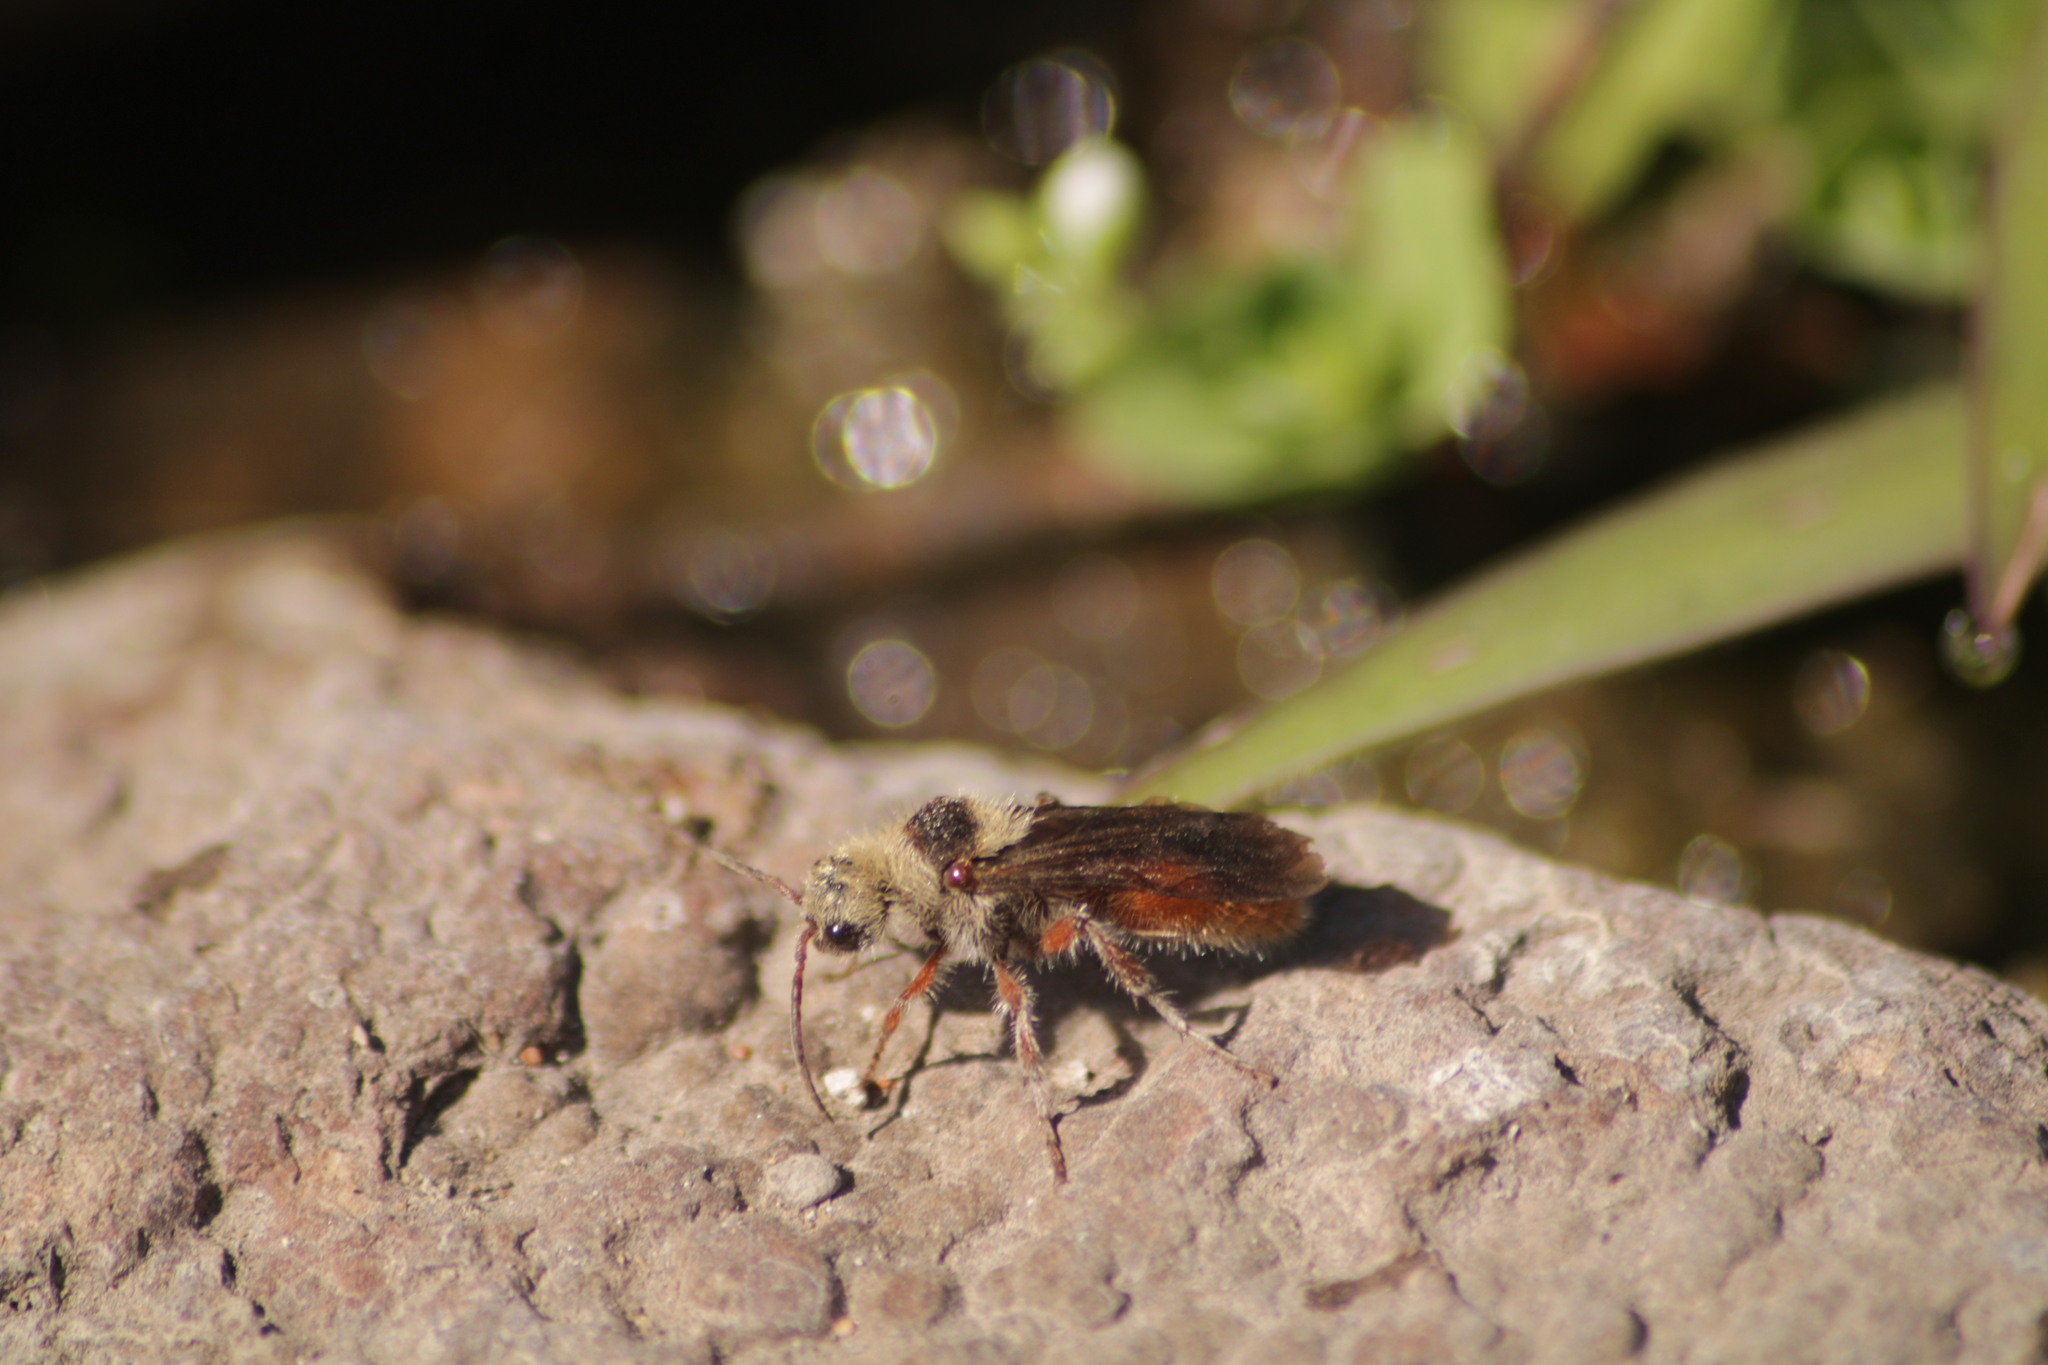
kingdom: Animalia
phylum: Arthropoda
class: Insecta
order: Hymenoptera
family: Mutillidae
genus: Dasymutilla
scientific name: Dasymutilla foxi
